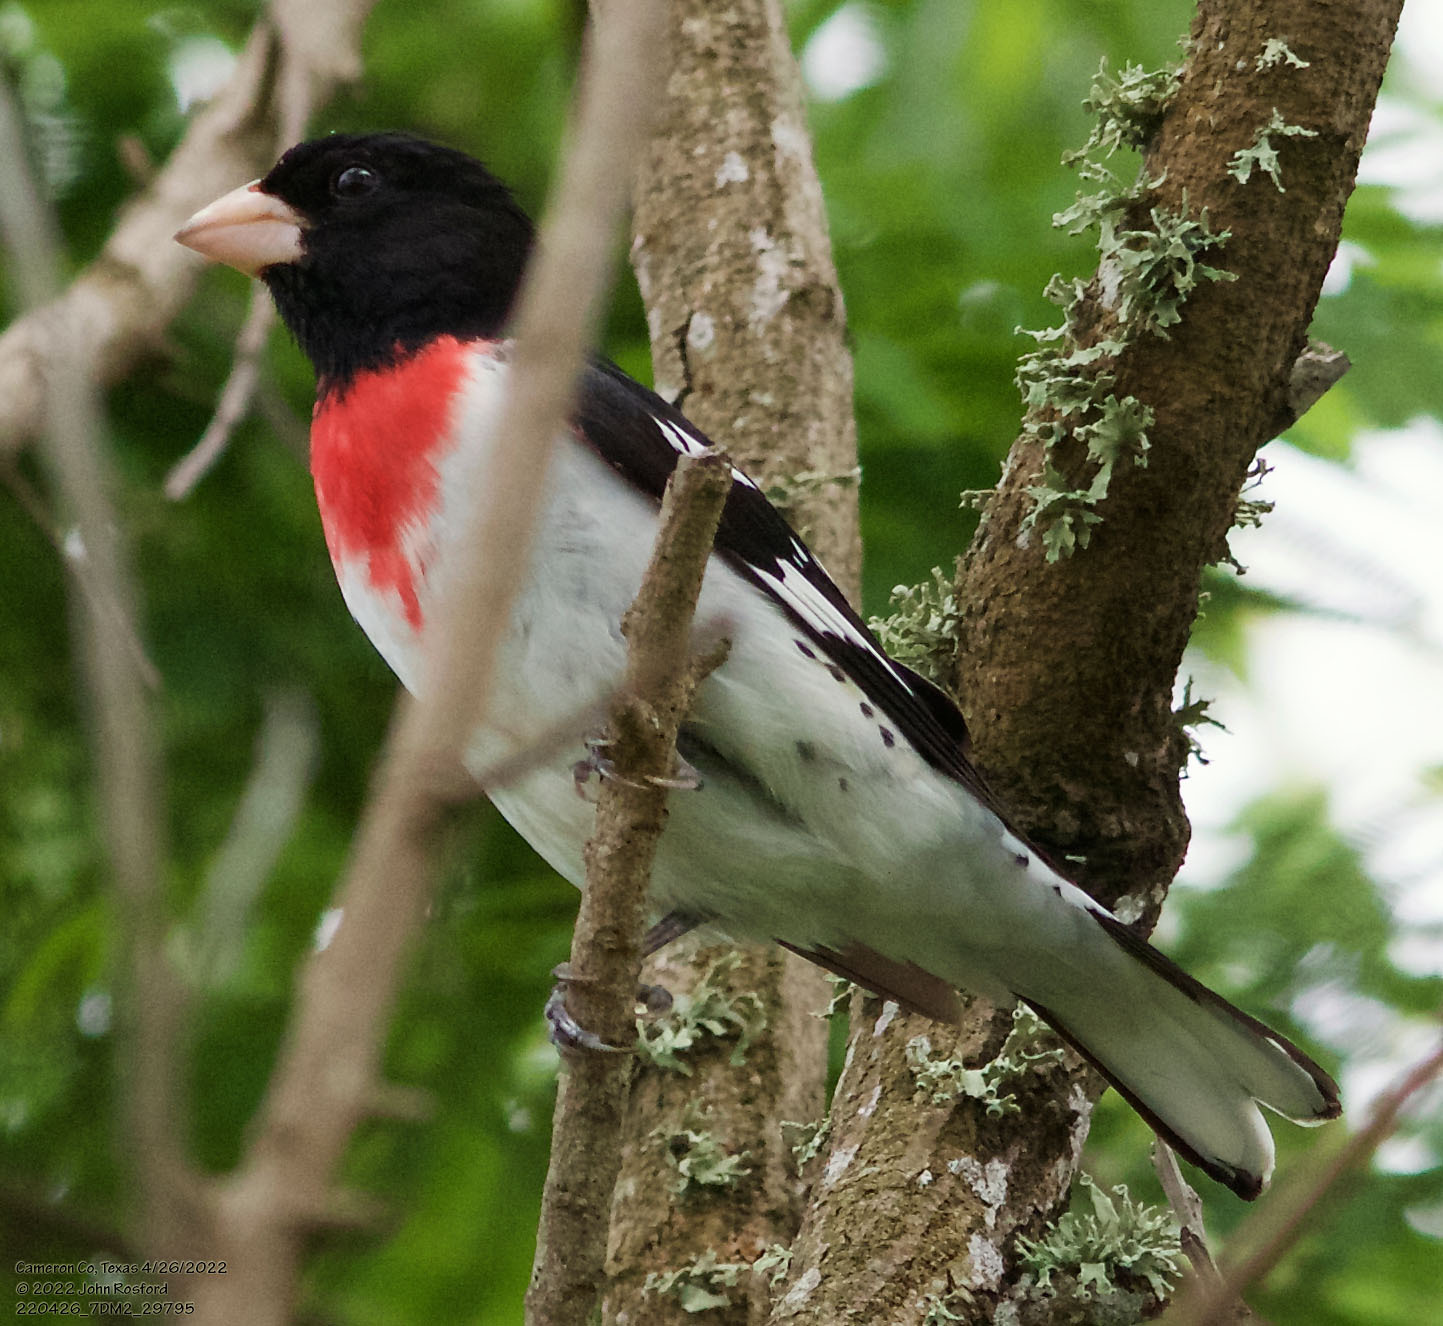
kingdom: Animalia
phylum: Chordata
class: Aves
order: Passeriformes
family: Cardinalidae
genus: Pheucticus
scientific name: Pheucticus ludovicianus
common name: Rose-breasted grosbeak
